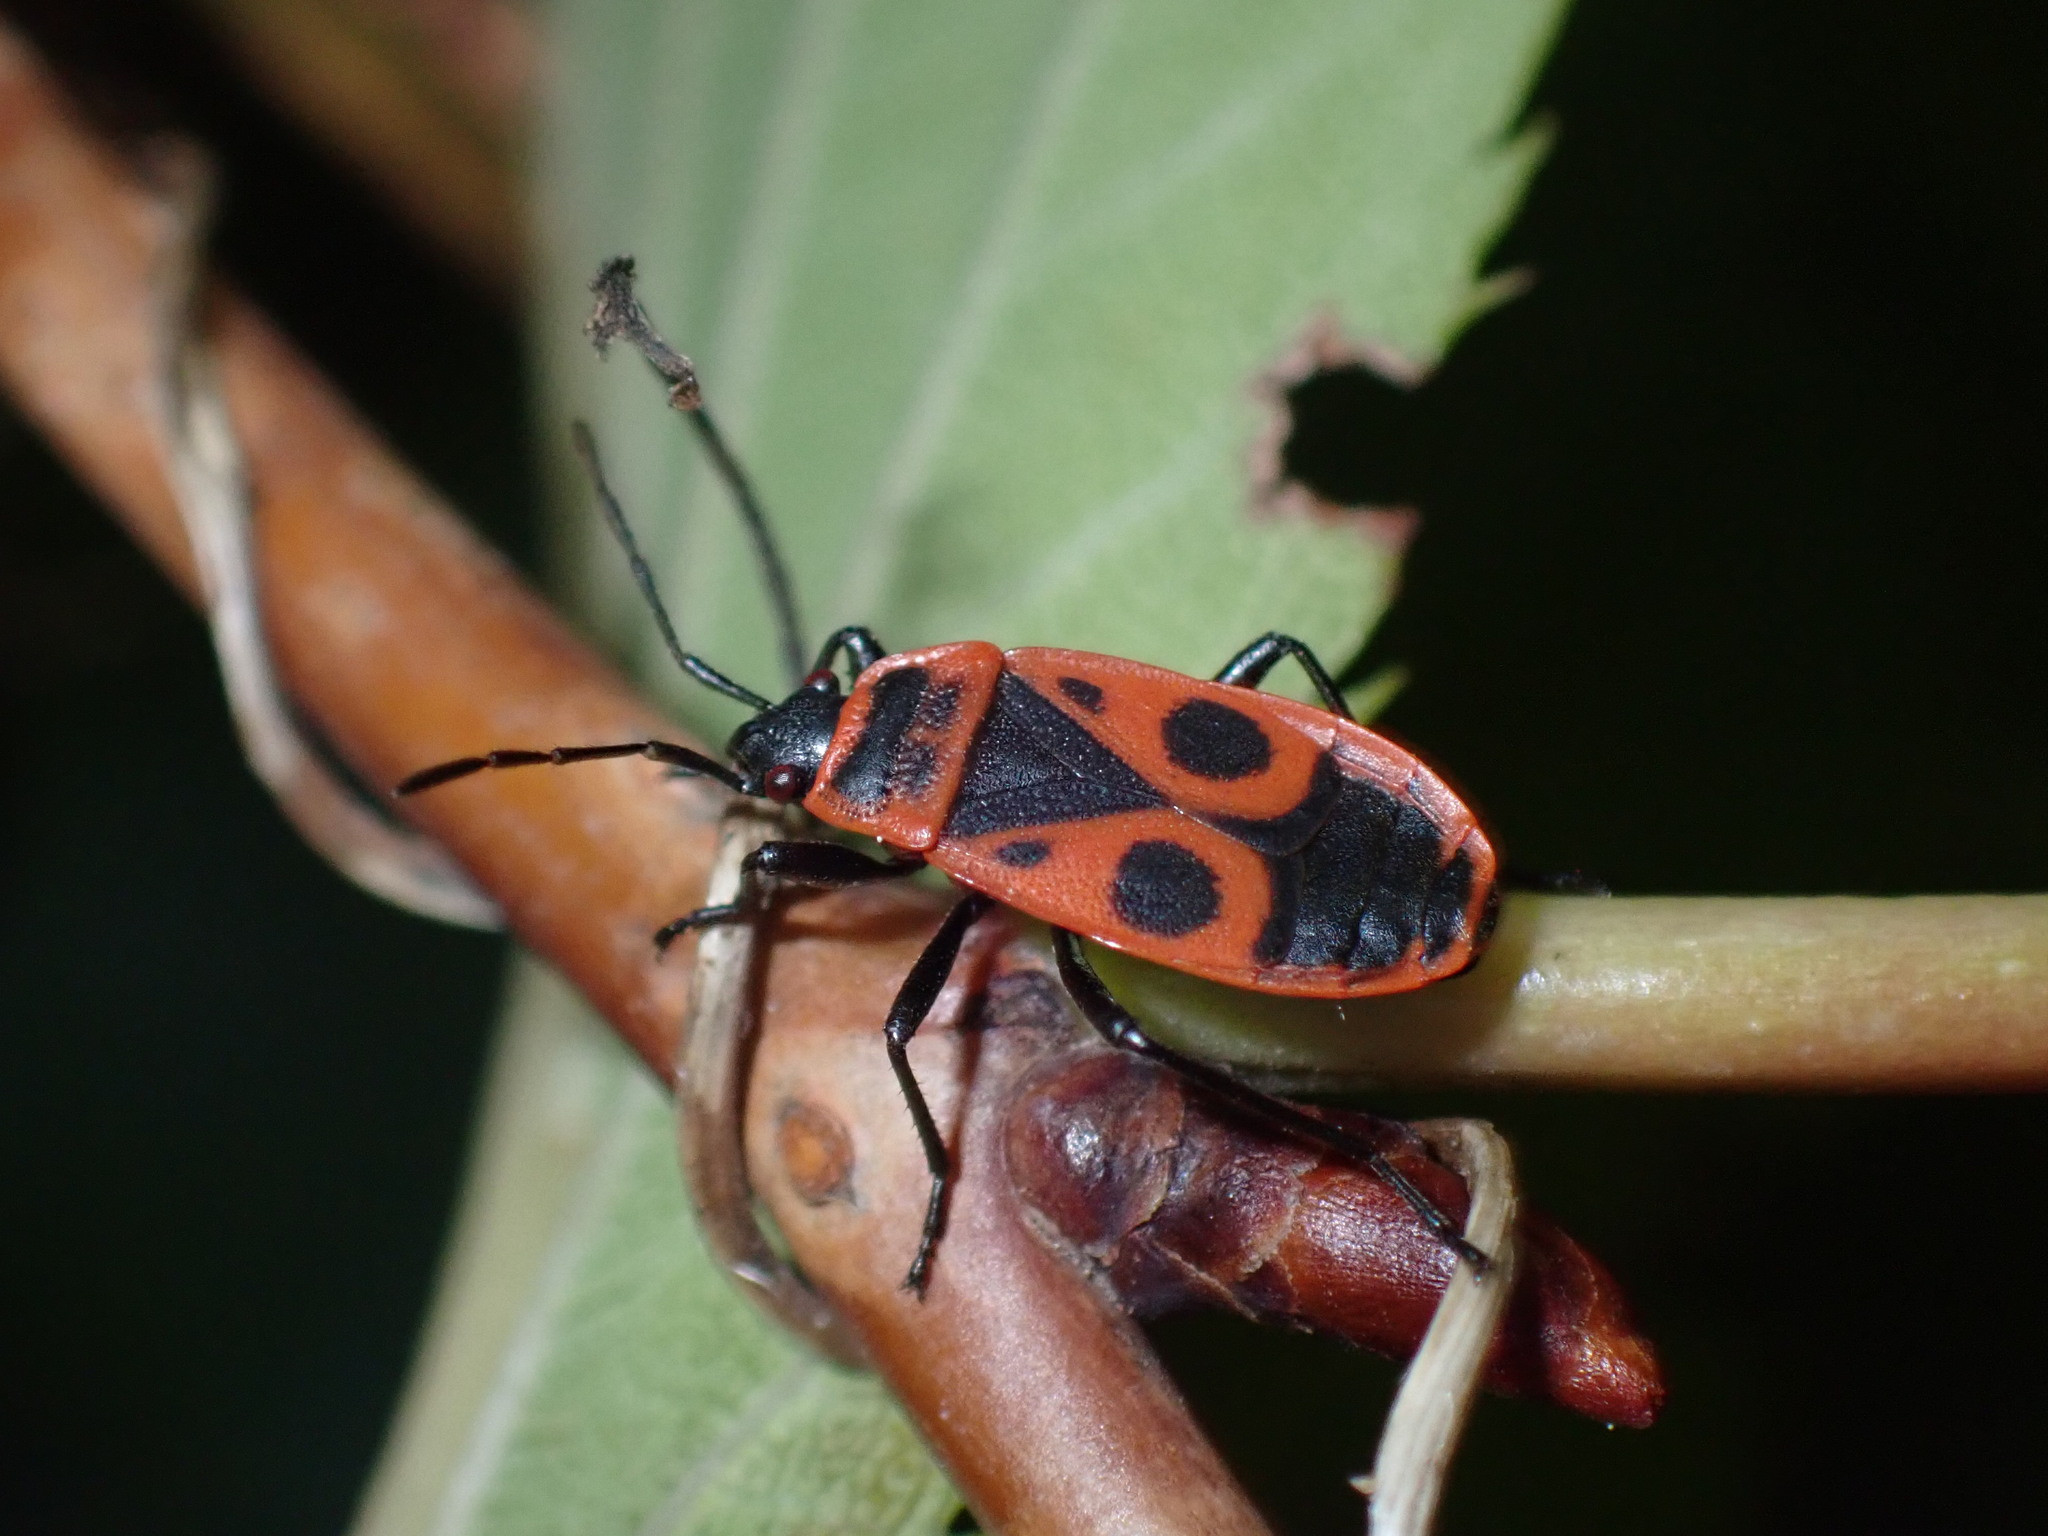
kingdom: Animalia
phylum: Arthropoda
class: Insecta
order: Hemiptera
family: Pyrrhocoridae
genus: Pyrrhocoris
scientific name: Pyrrhocoris apterus
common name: Firebug
